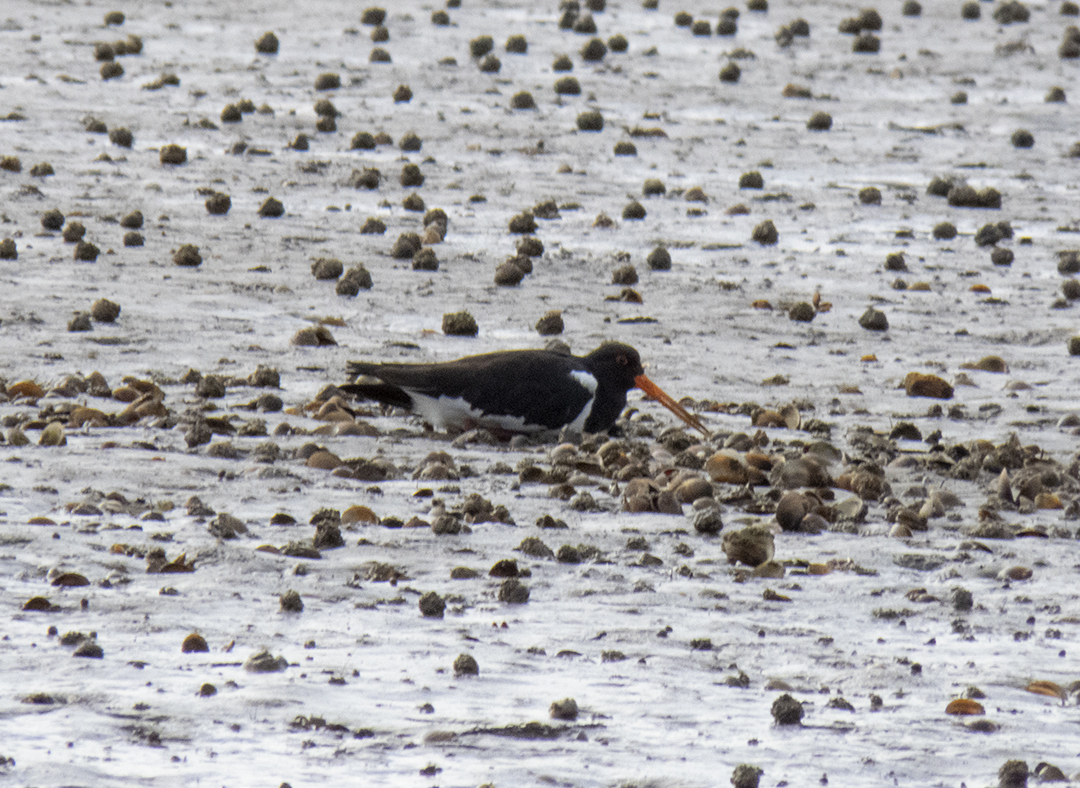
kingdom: Animalia
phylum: Chordata
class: Aves
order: Charadriiformes
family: Haematopodidae
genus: Haematopus
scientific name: Haematopus finschi
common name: South island oystercatcher
